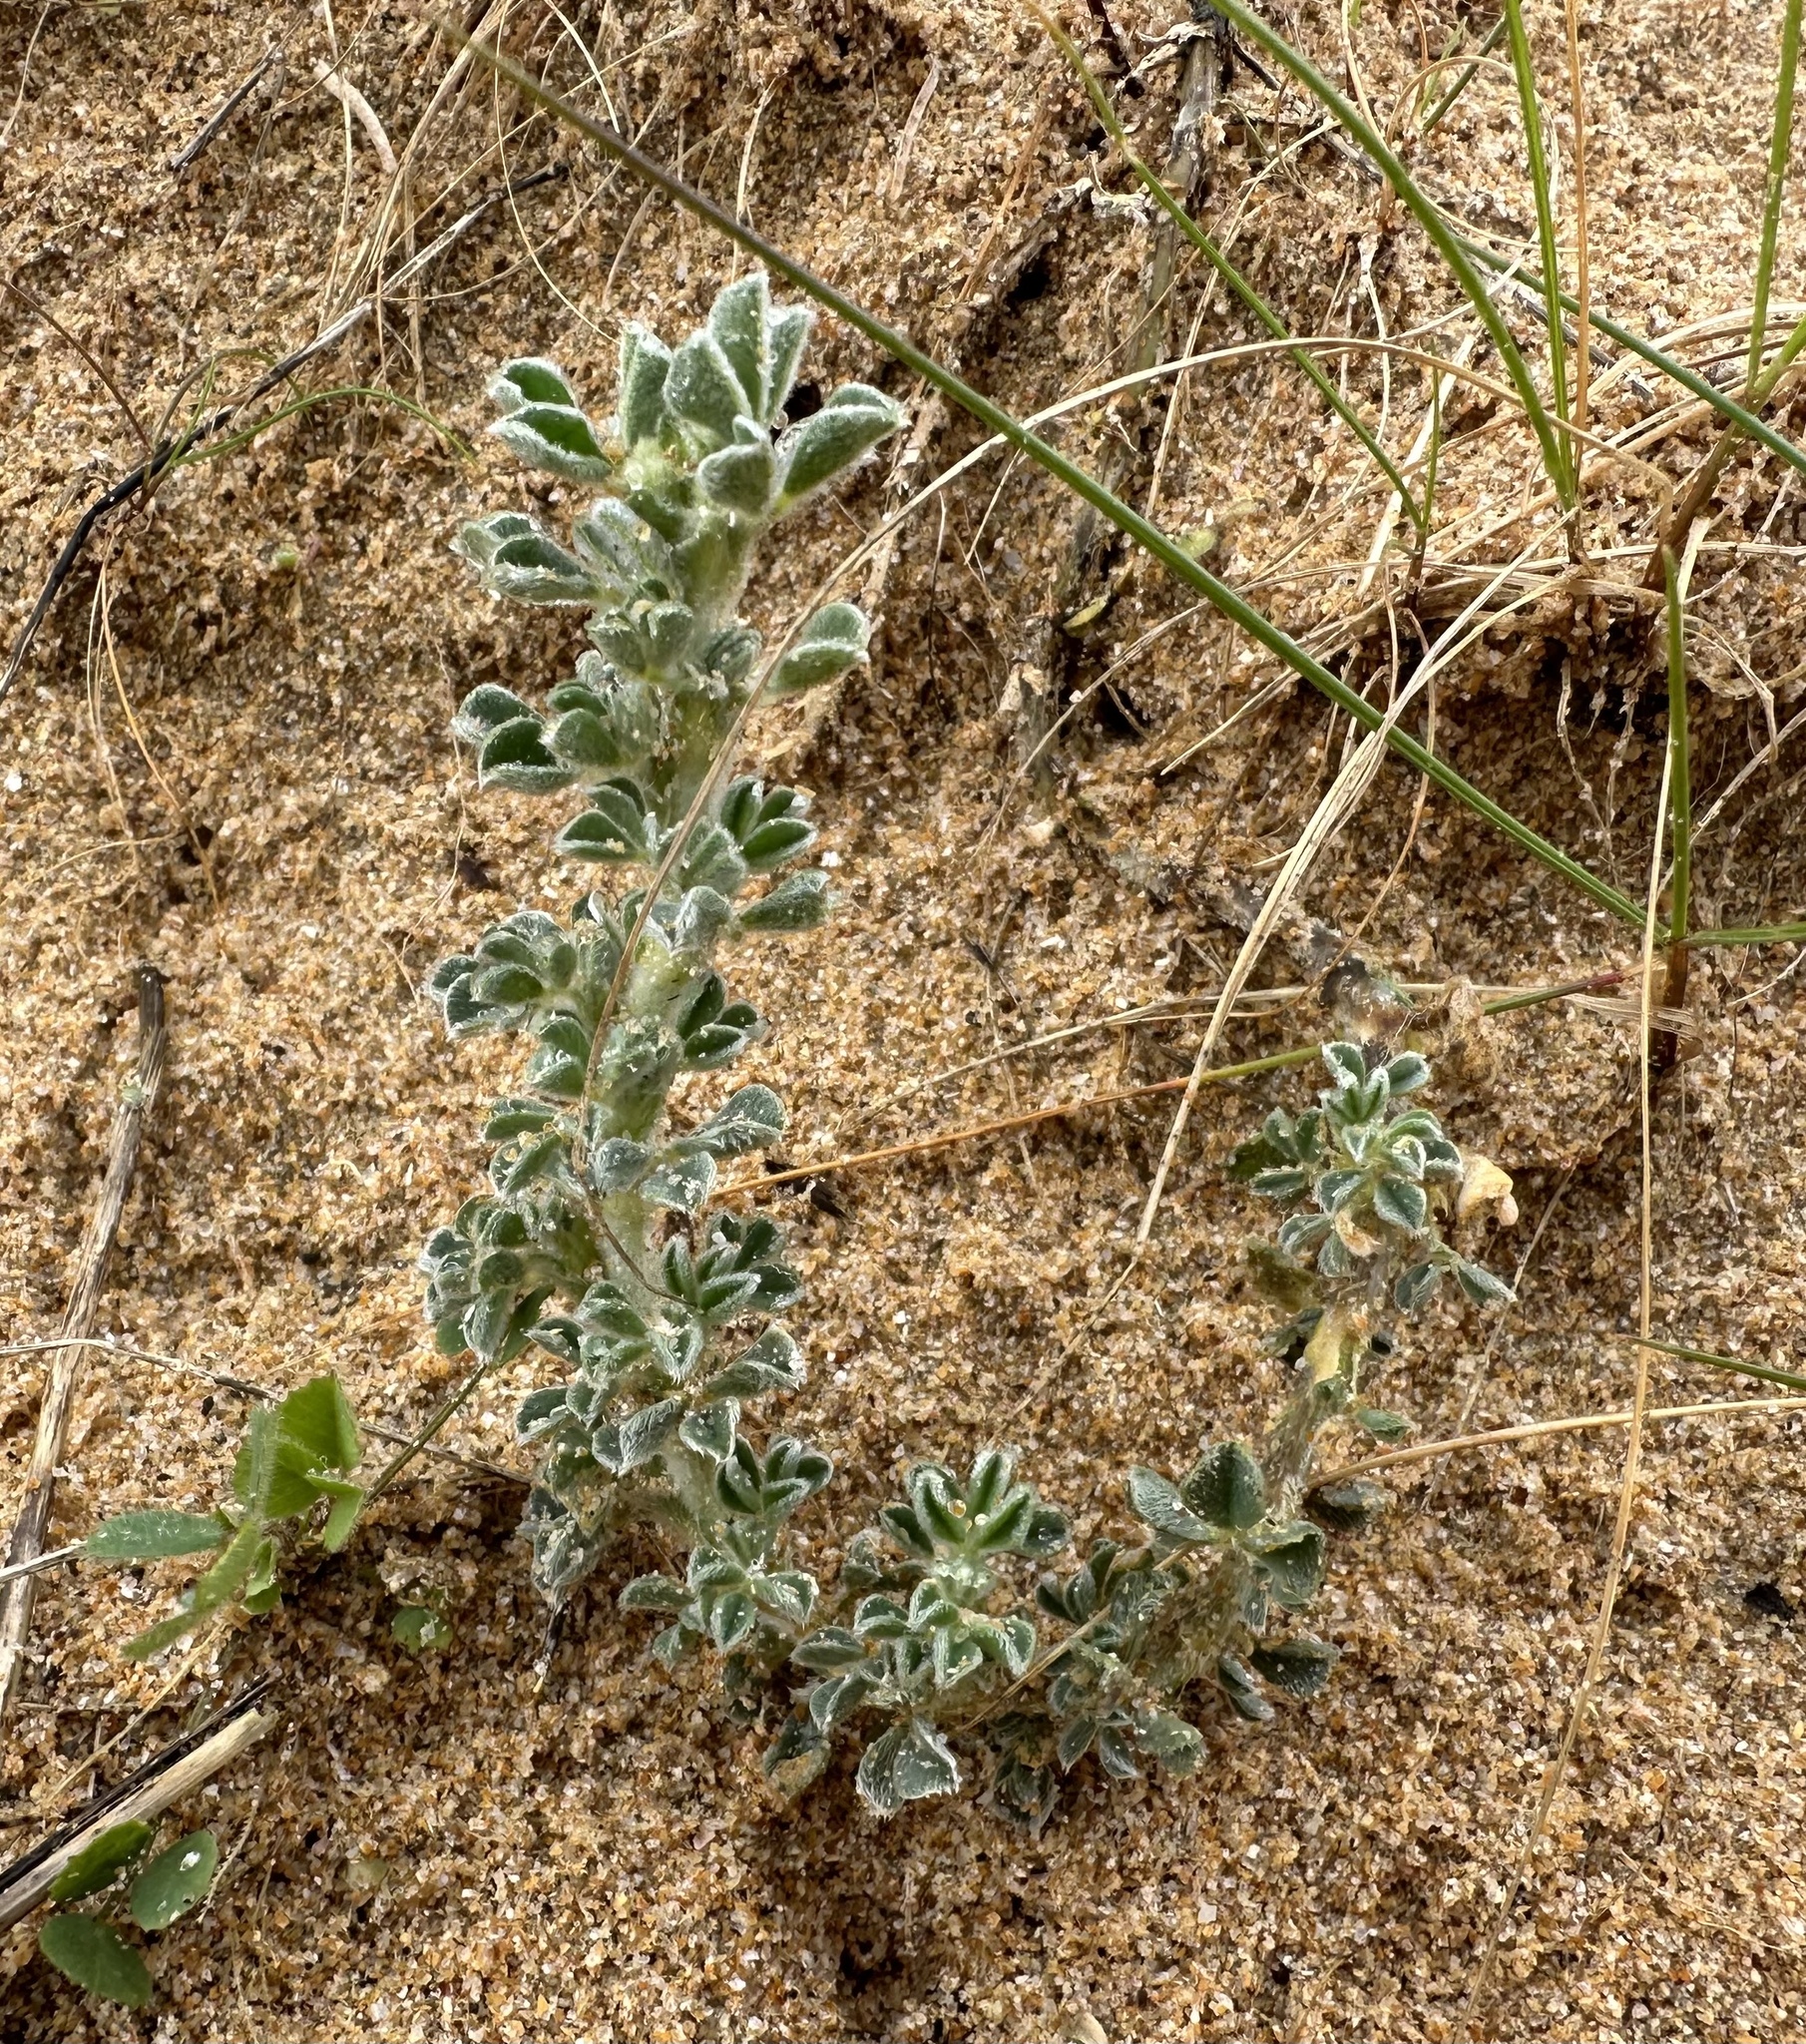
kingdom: Plantae
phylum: Tracheophyta
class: Magnoliopsida
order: Fabales
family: Fabaceae
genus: Medicago
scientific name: Medicago marina
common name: Sea medick
